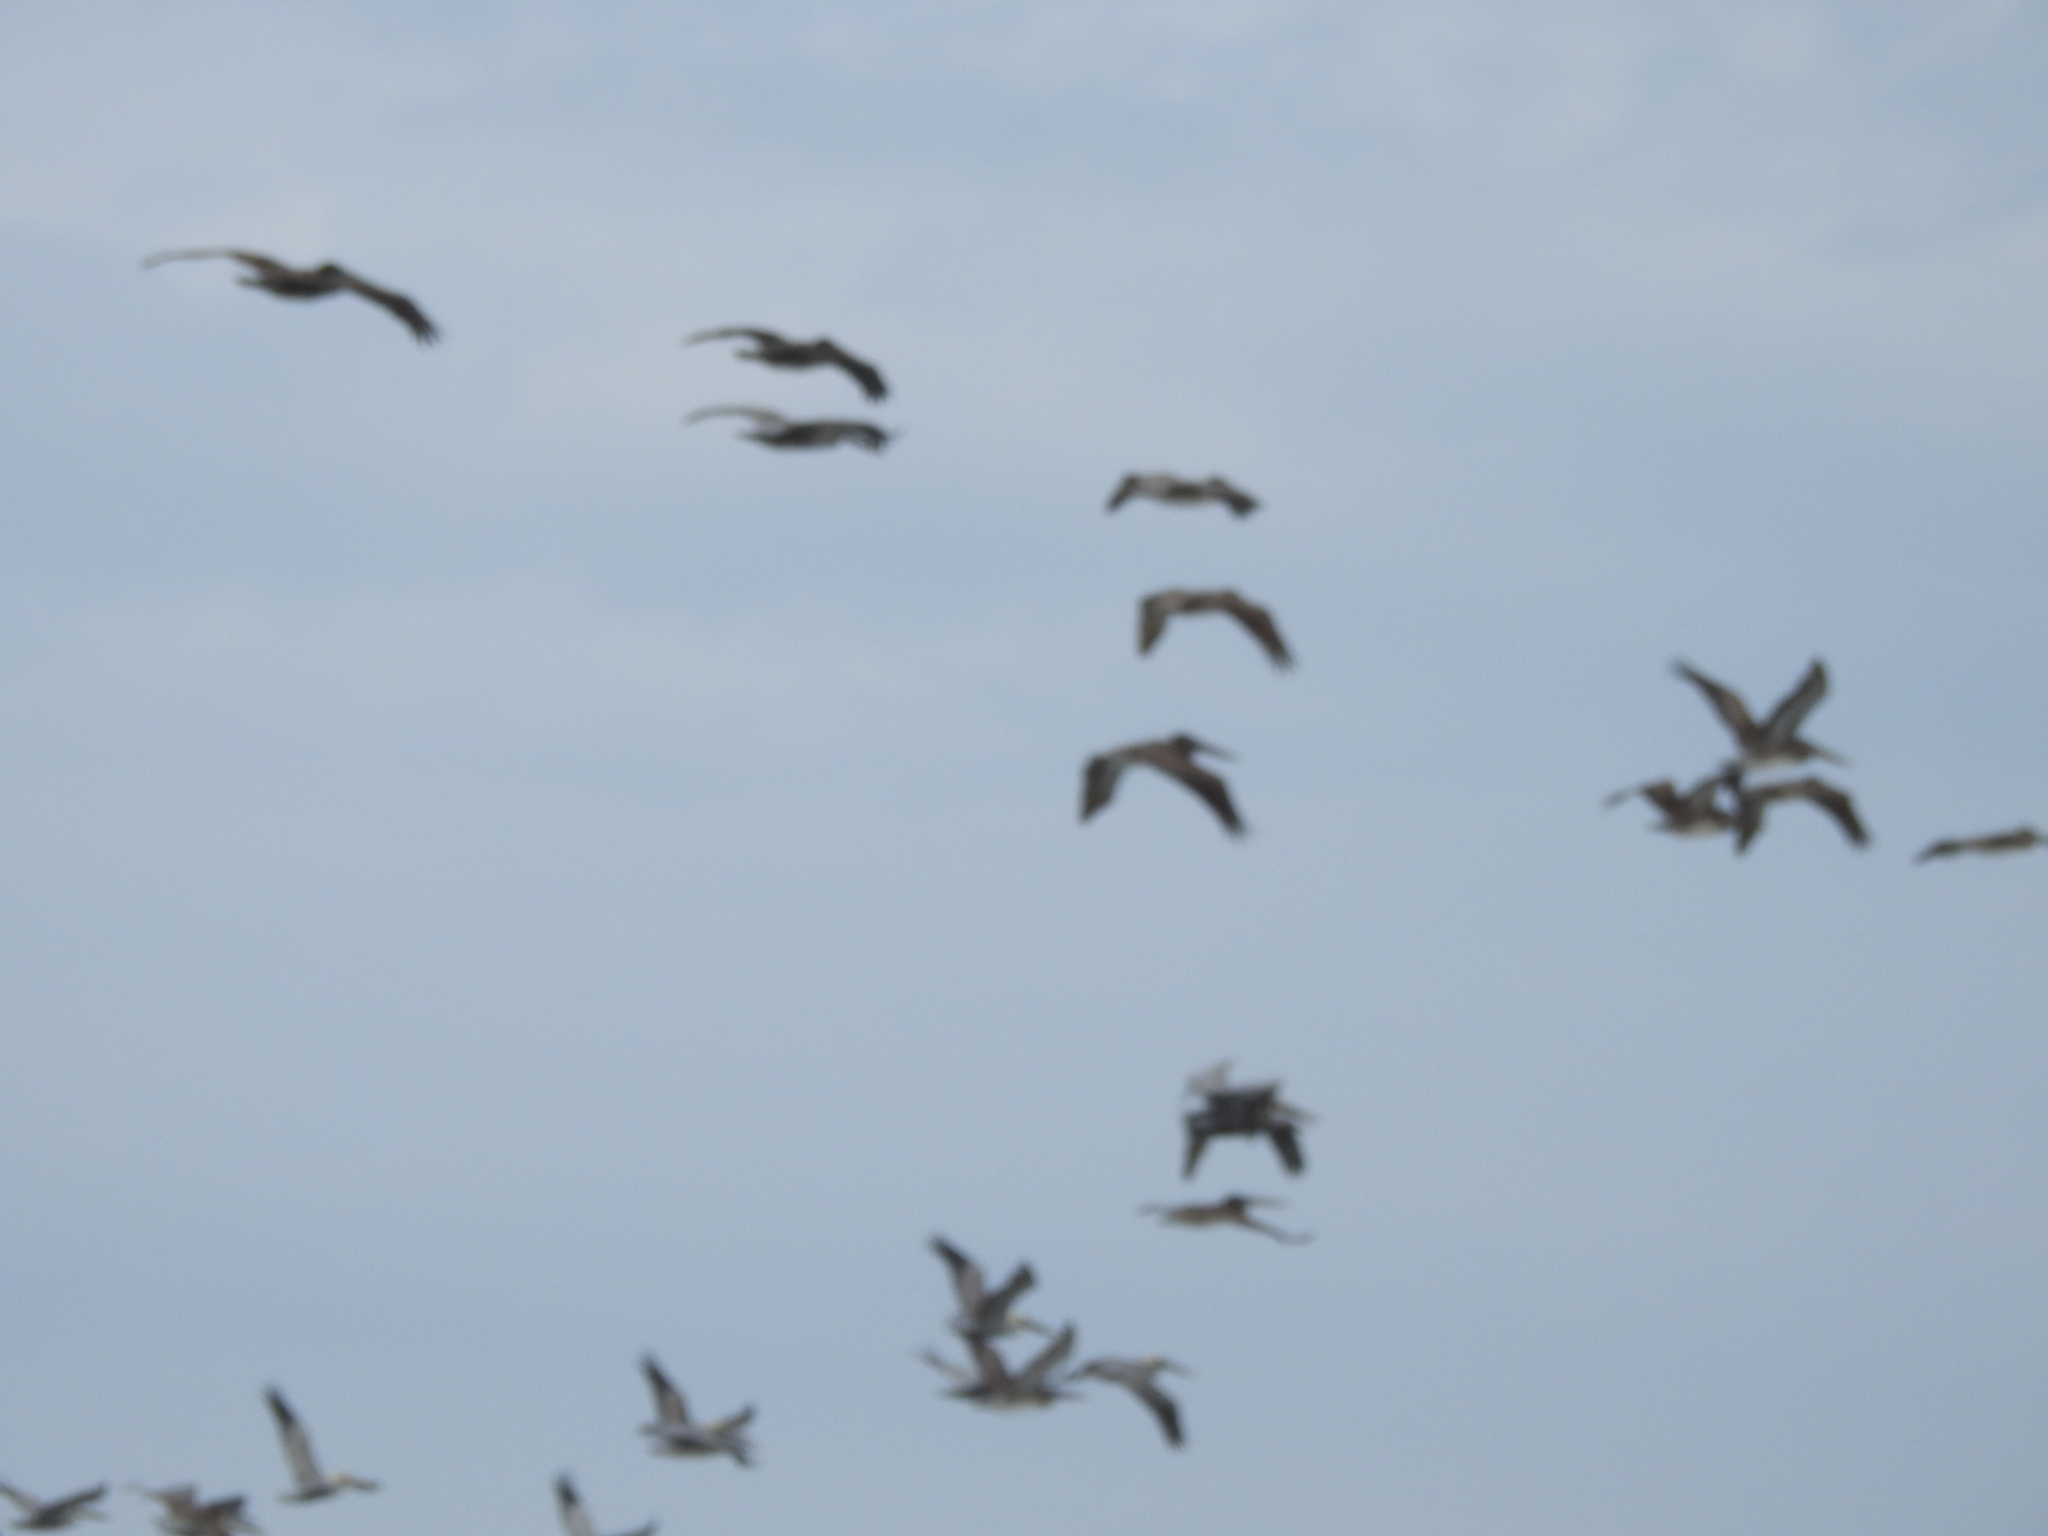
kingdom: Animalia
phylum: Chordata
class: Aves
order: Pelecaniformes
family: Pelecanidae
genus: Pelecanus
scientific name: Pelecanus occidentalis
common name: Brown pelican
